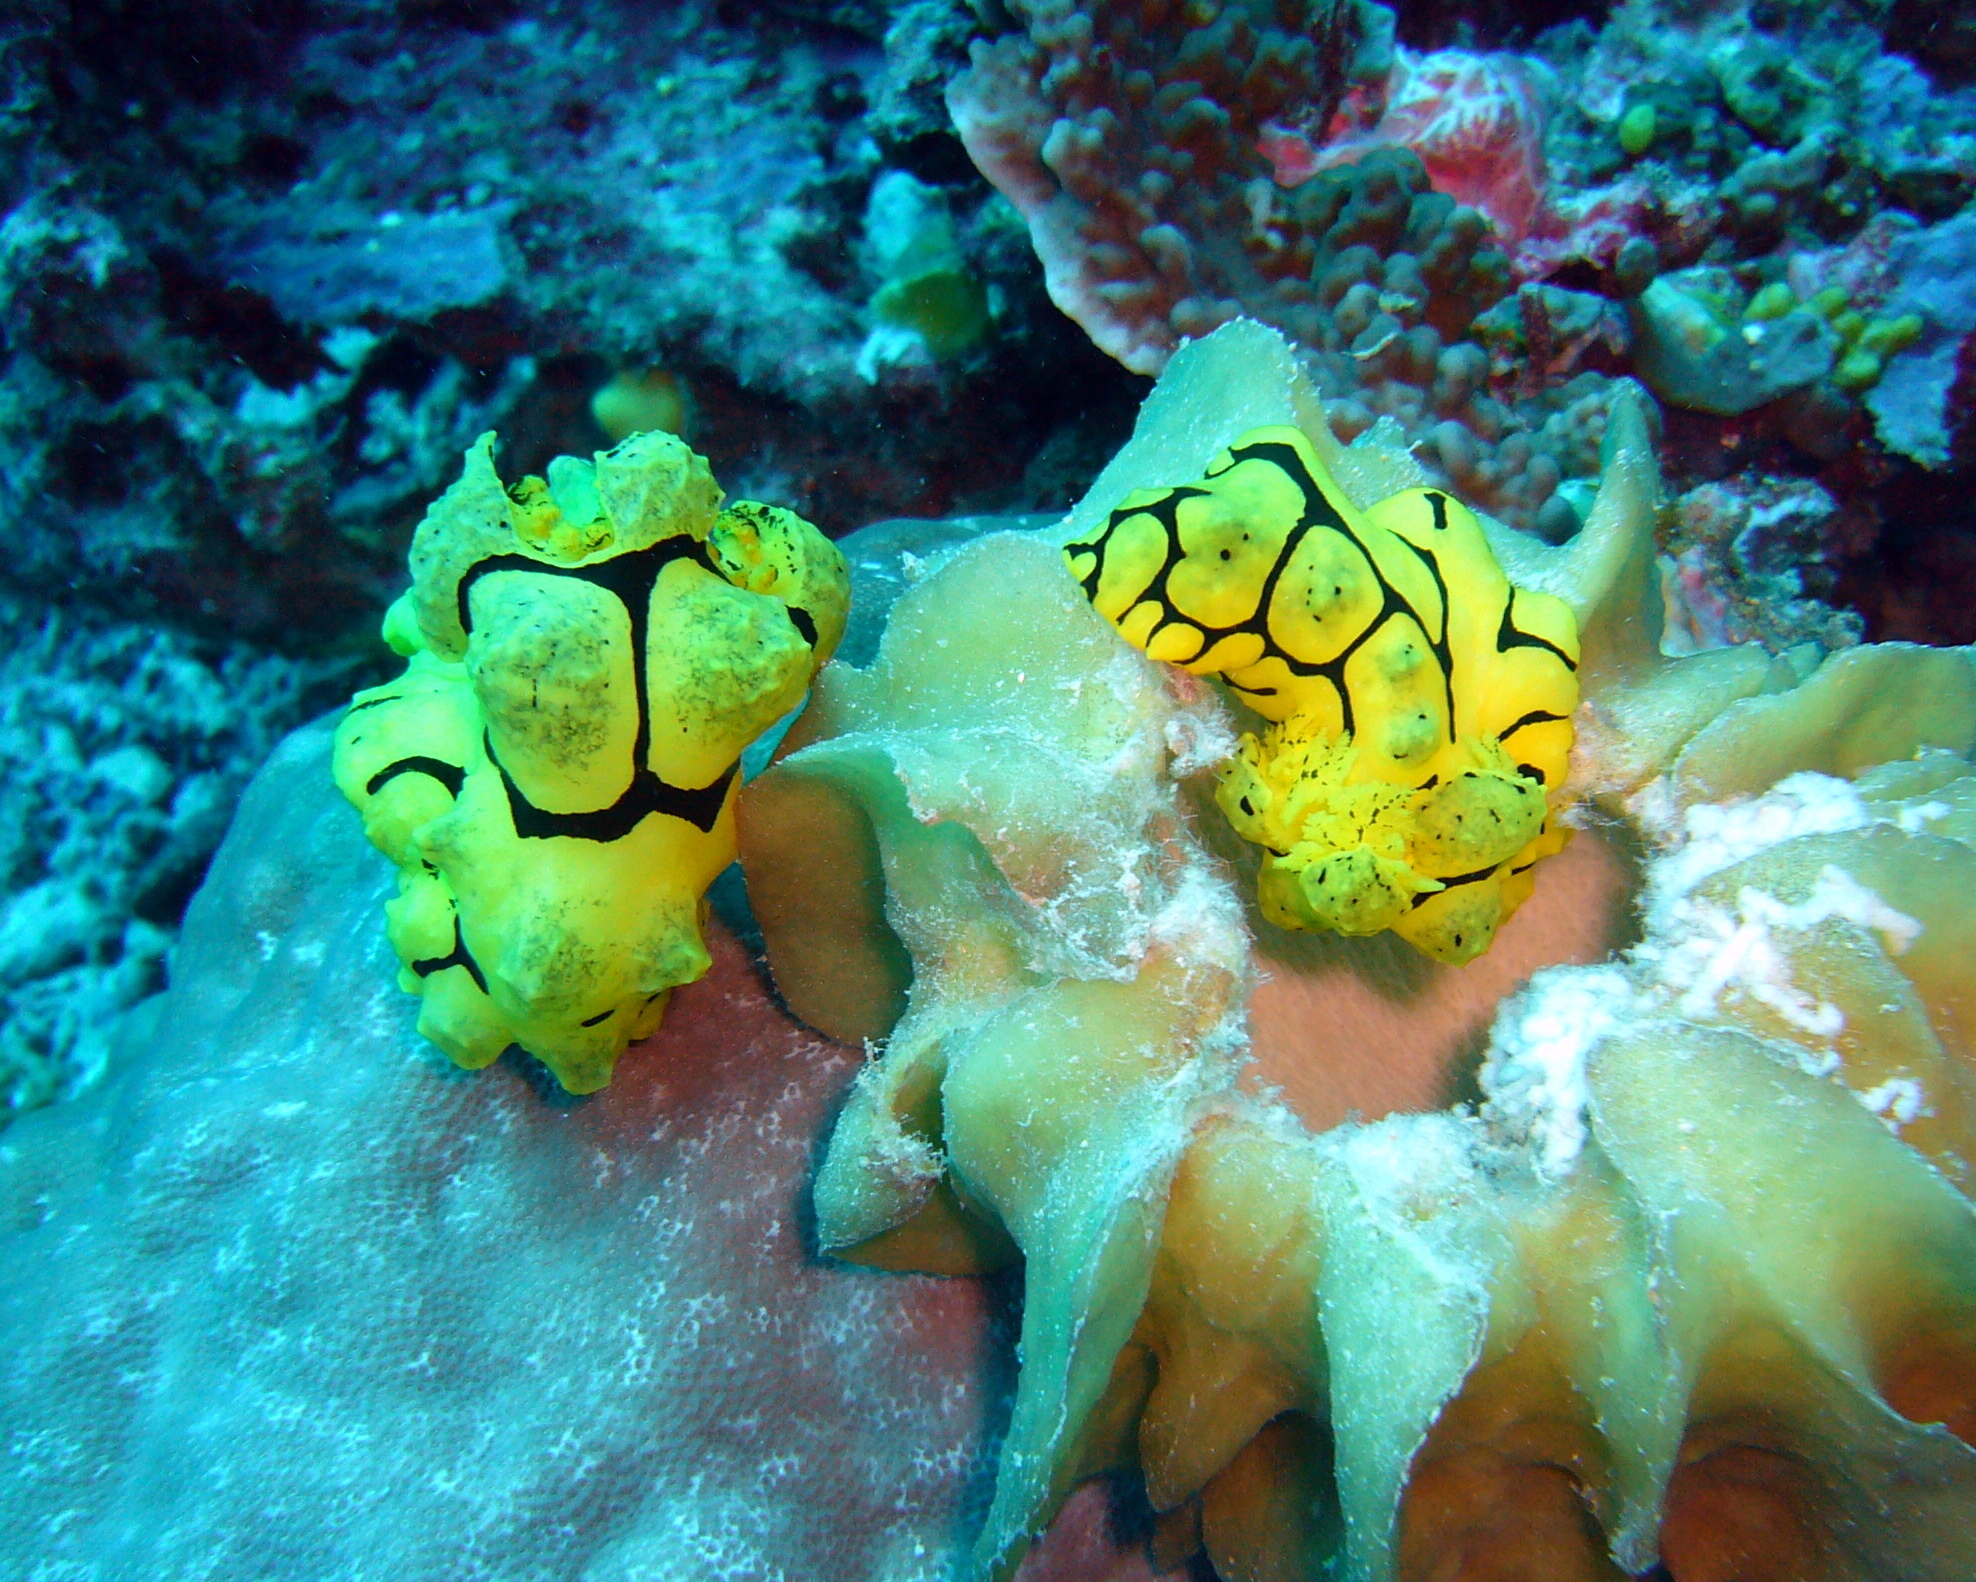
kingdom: Animalia
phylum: Mollusca
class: Gastropoda
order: Nudibranchia
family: Aegiridae
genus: Notodoris
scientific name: Notodoris minor
